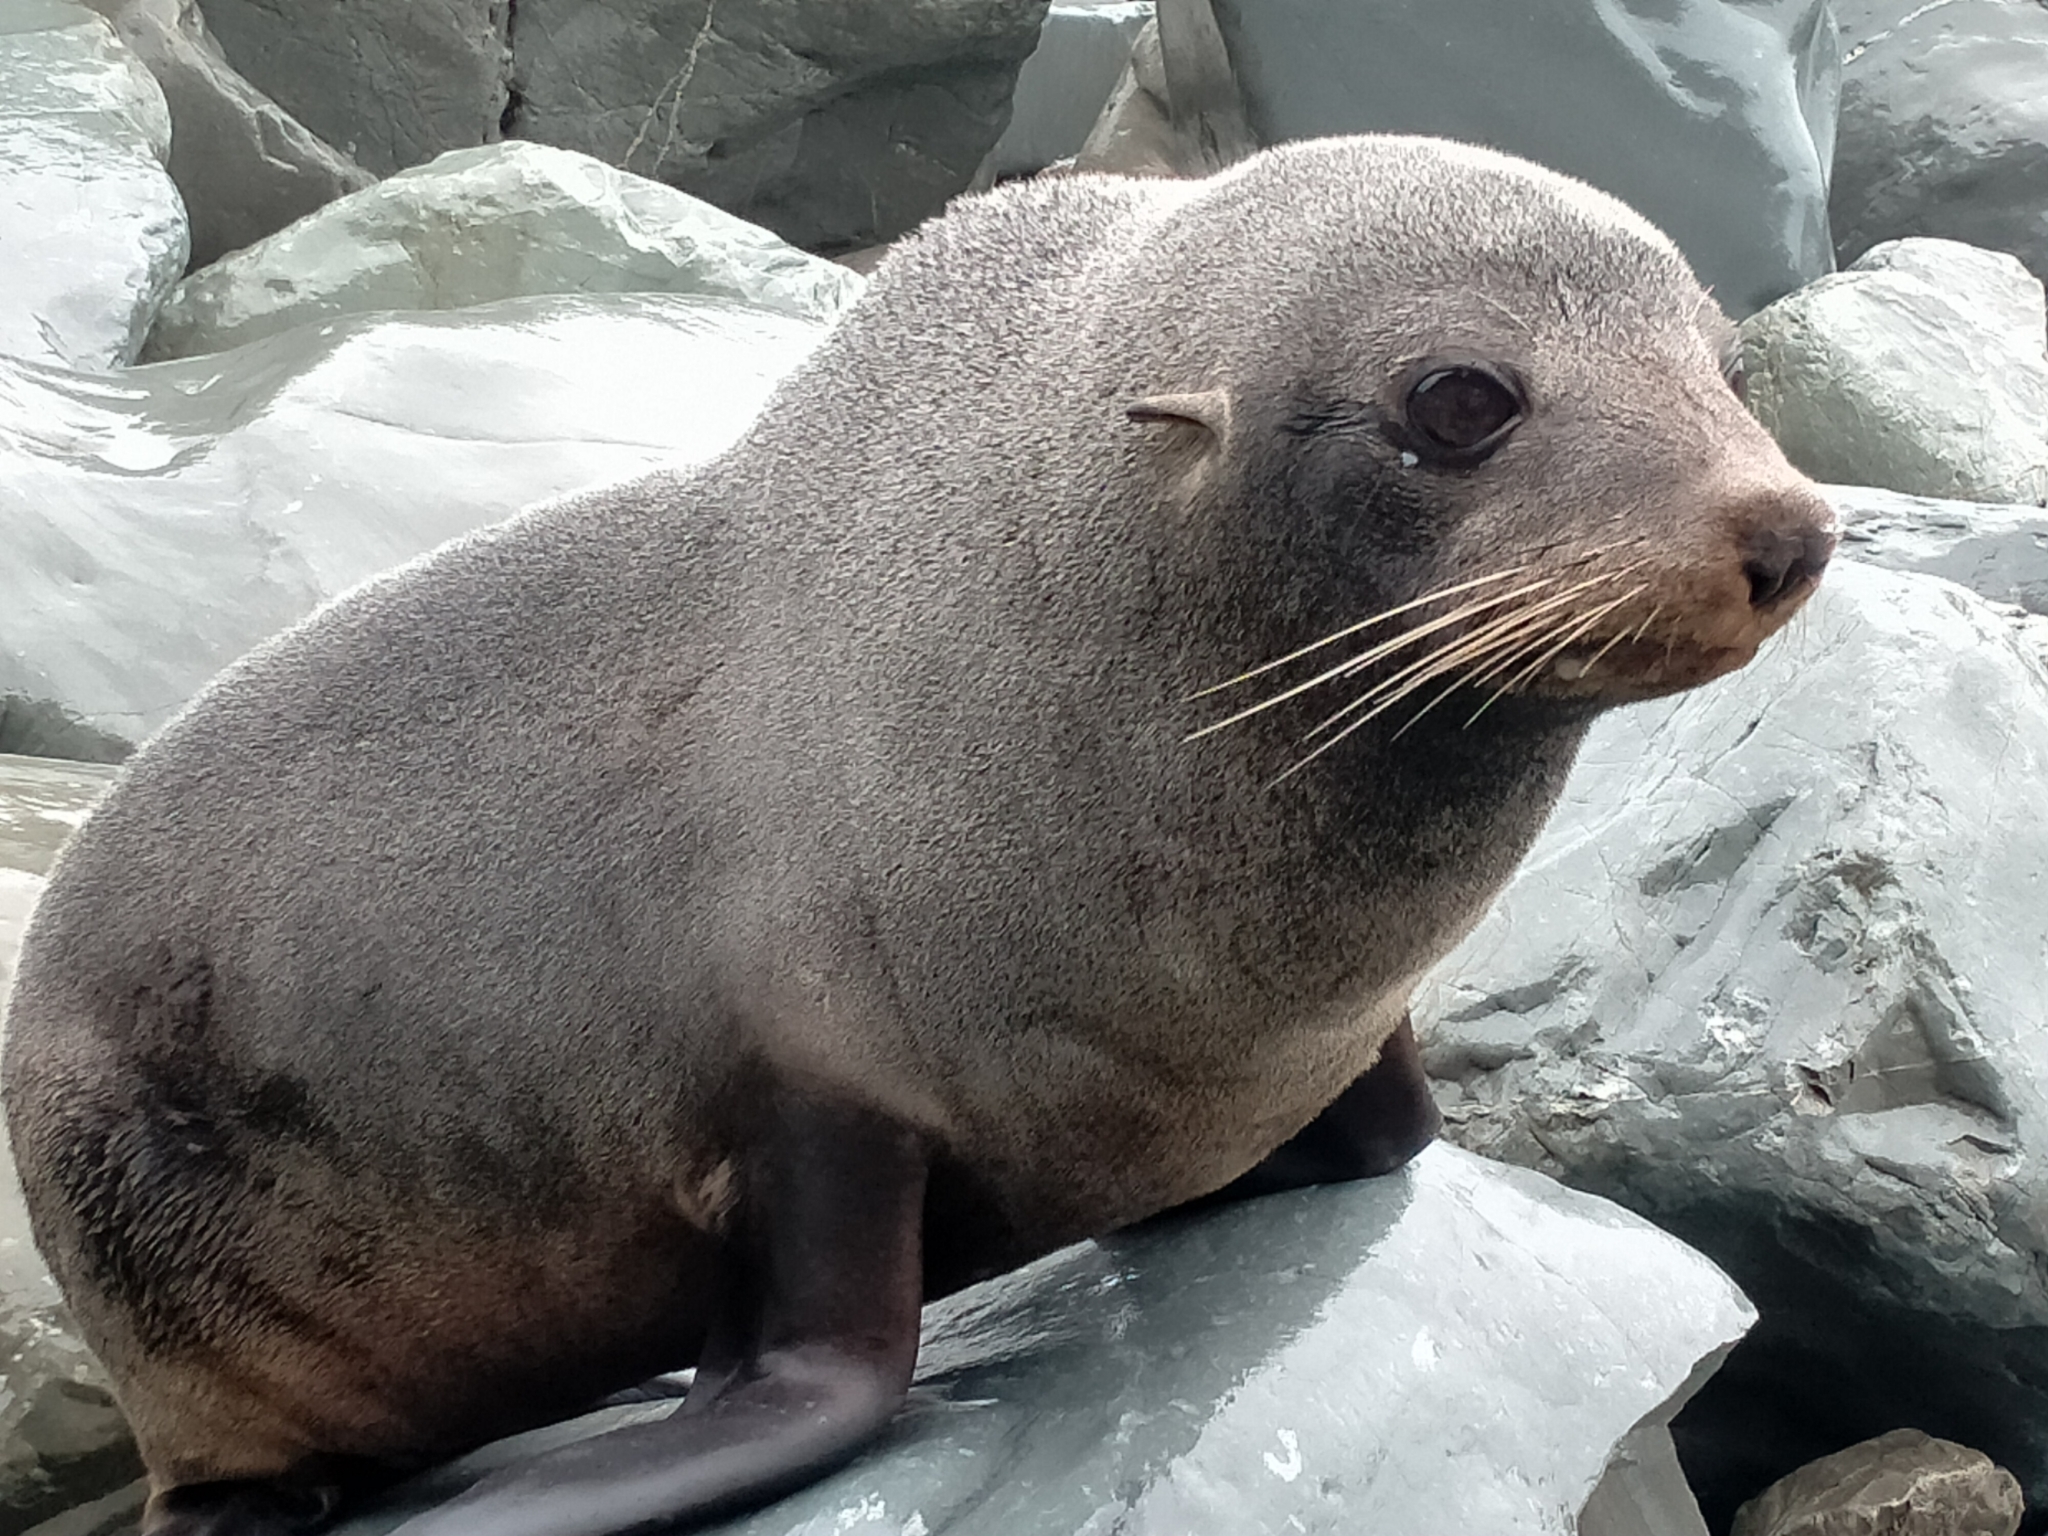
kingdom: Animalia
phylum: Chordata
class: Mammalia
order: Carnivora
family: Otariidae
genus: Arctocephalus
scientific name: Arctocephalus forsteri
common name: New zealand fur seal
